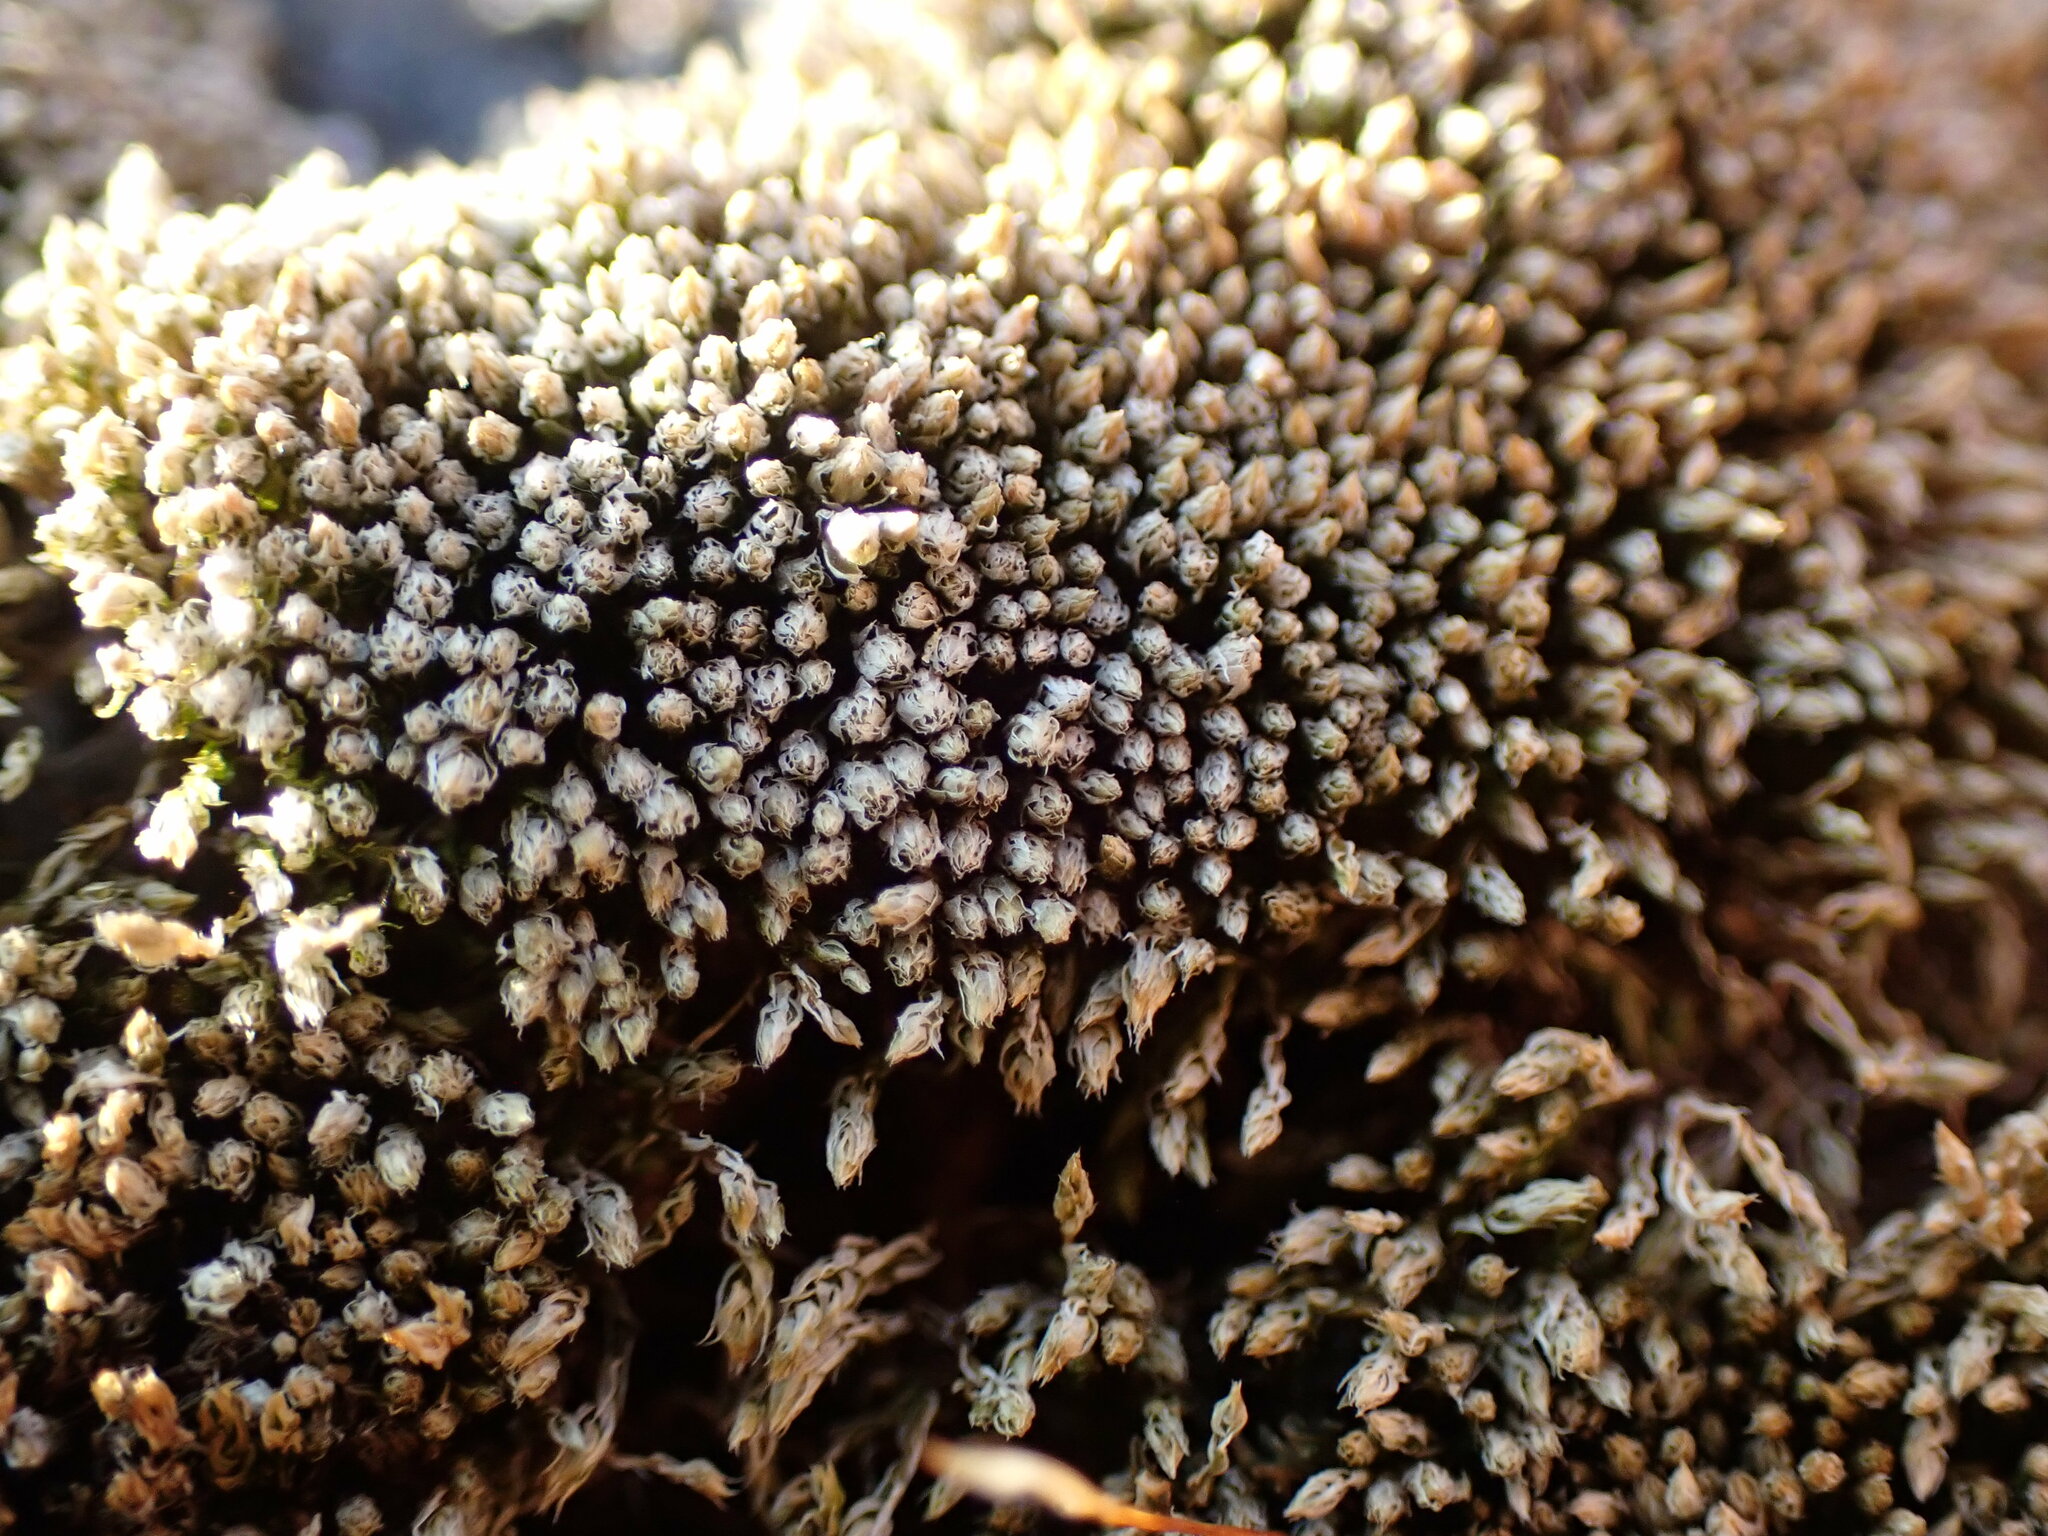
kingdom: Plantae
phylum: Bryophyta
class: Bryopsida
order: Bryales
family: Bryaceae
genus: Bryum
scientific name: Bryum argenteum
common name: Silver-moss
